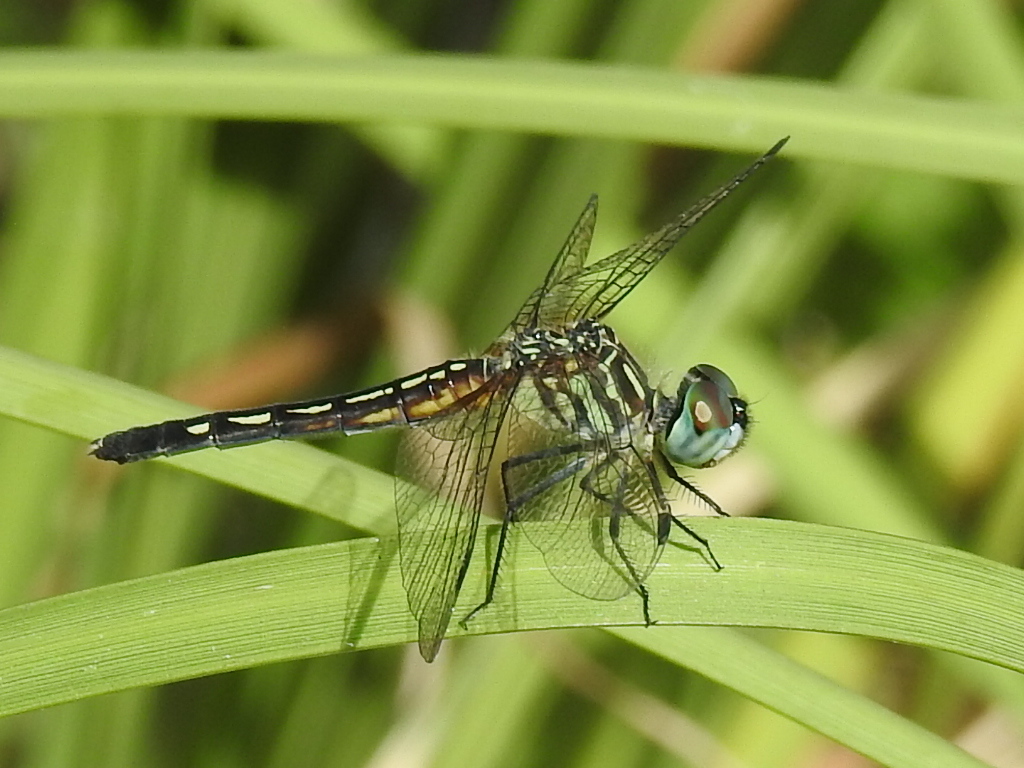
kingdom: Animalia
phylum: Arthropoda
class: Insecta
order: Odonata
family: Libellulidae
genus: Pachydiplax
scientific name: Pachydiplax longipennis
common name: Blue dasher
